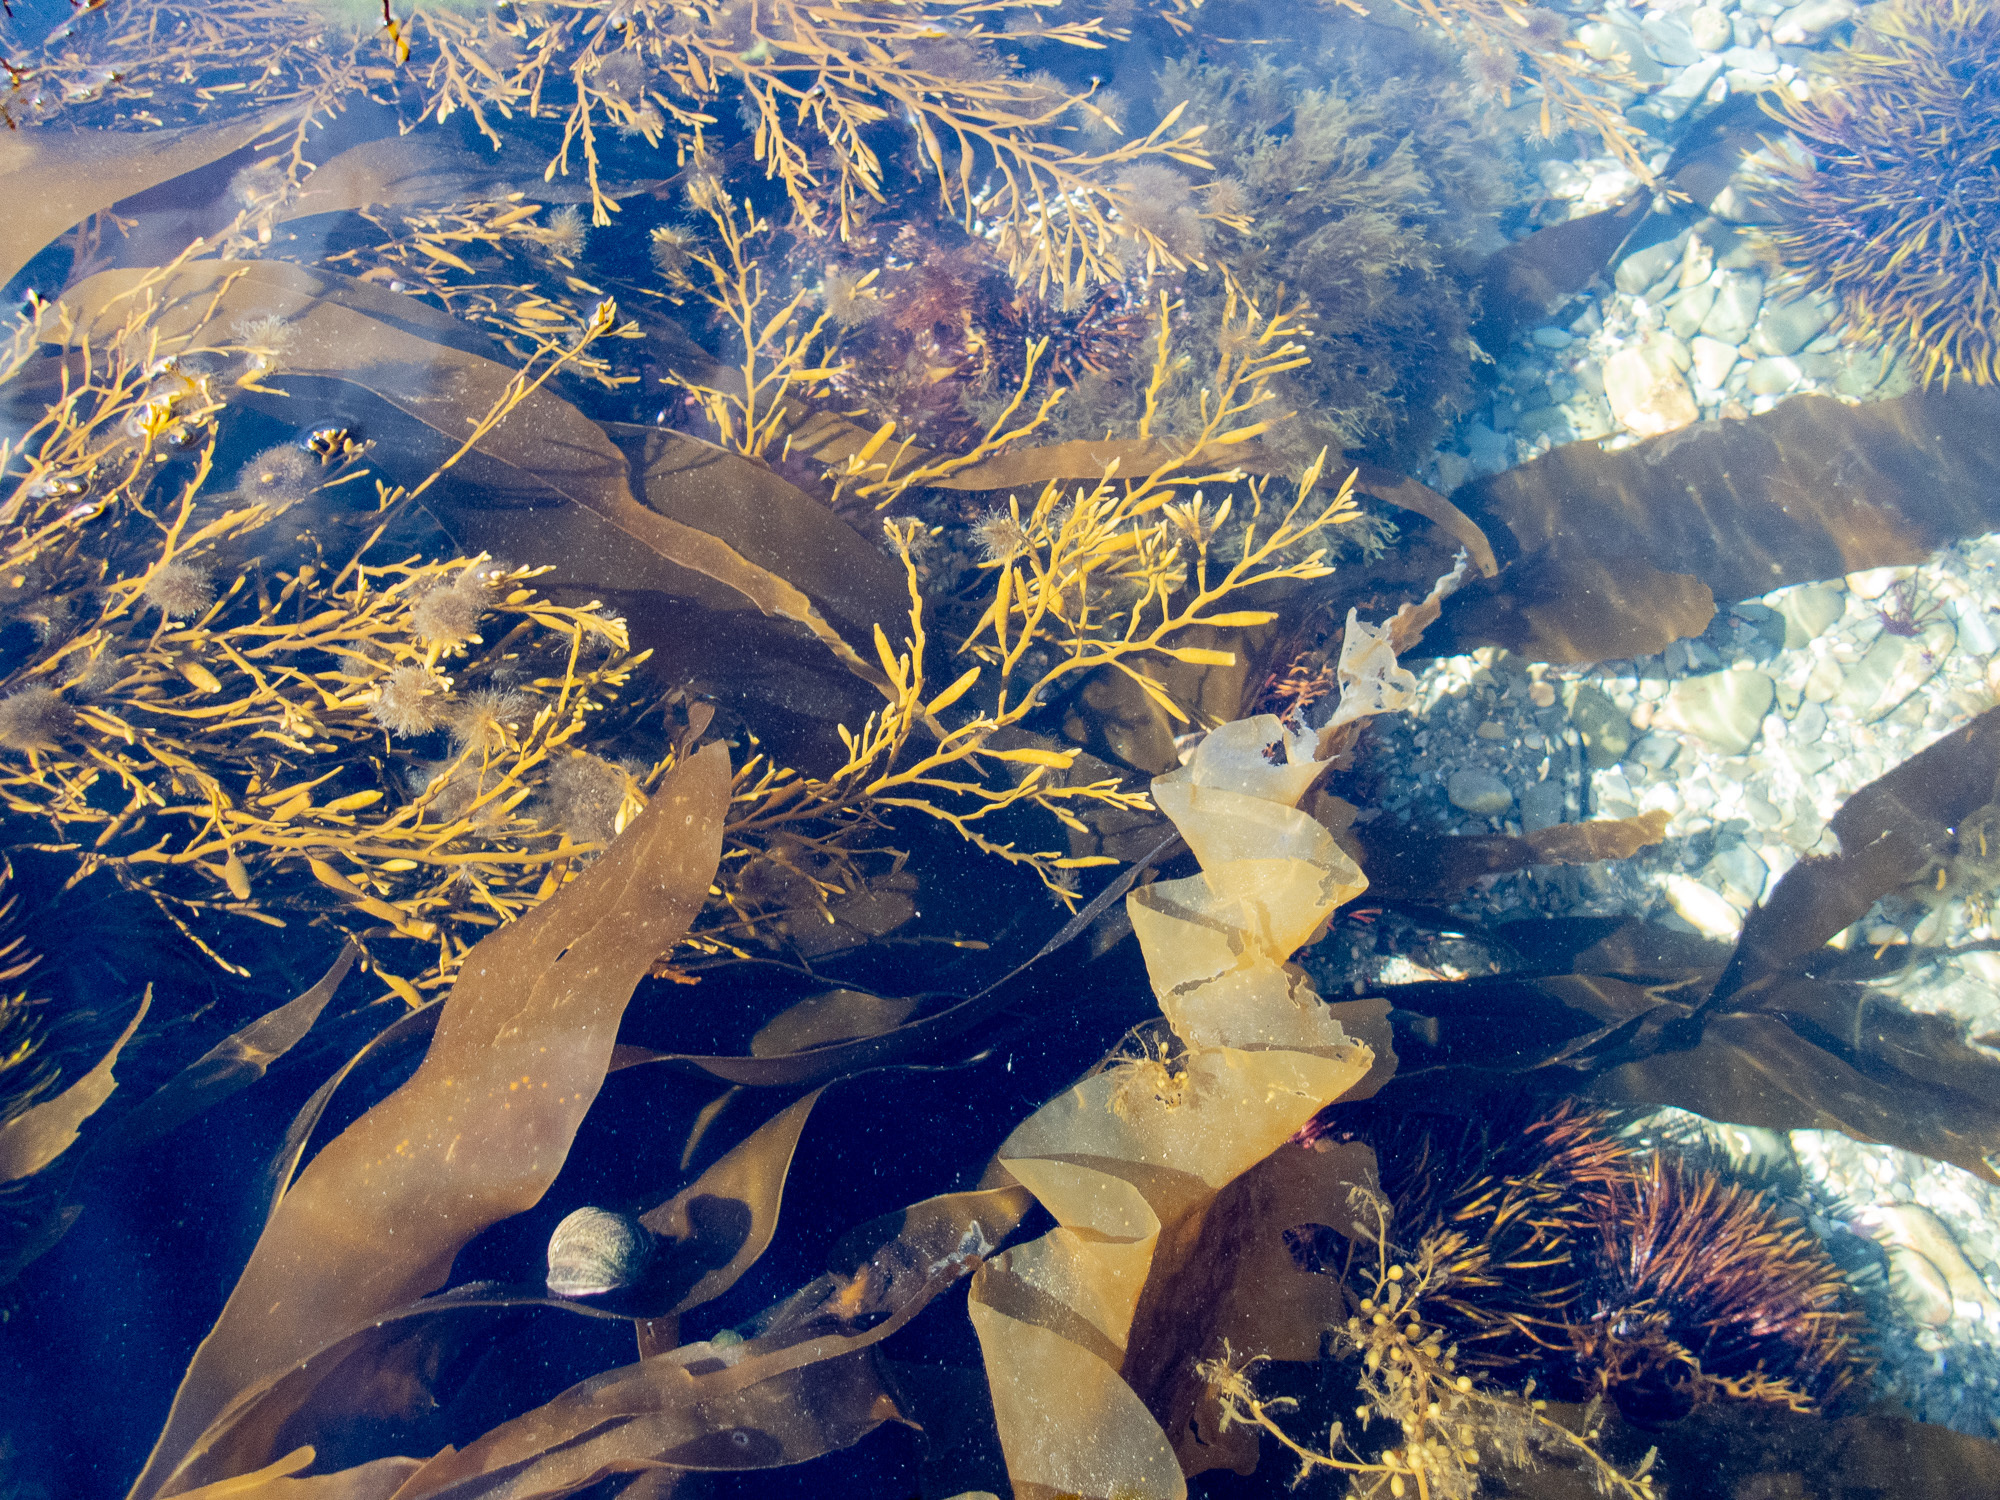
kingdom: Chromista
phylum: Ochrophyta
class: Phaeophyceae
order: Fucales
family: Sargassaceae
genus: Halidrys
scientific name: Halidrys siliquosa
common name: Sea oak
